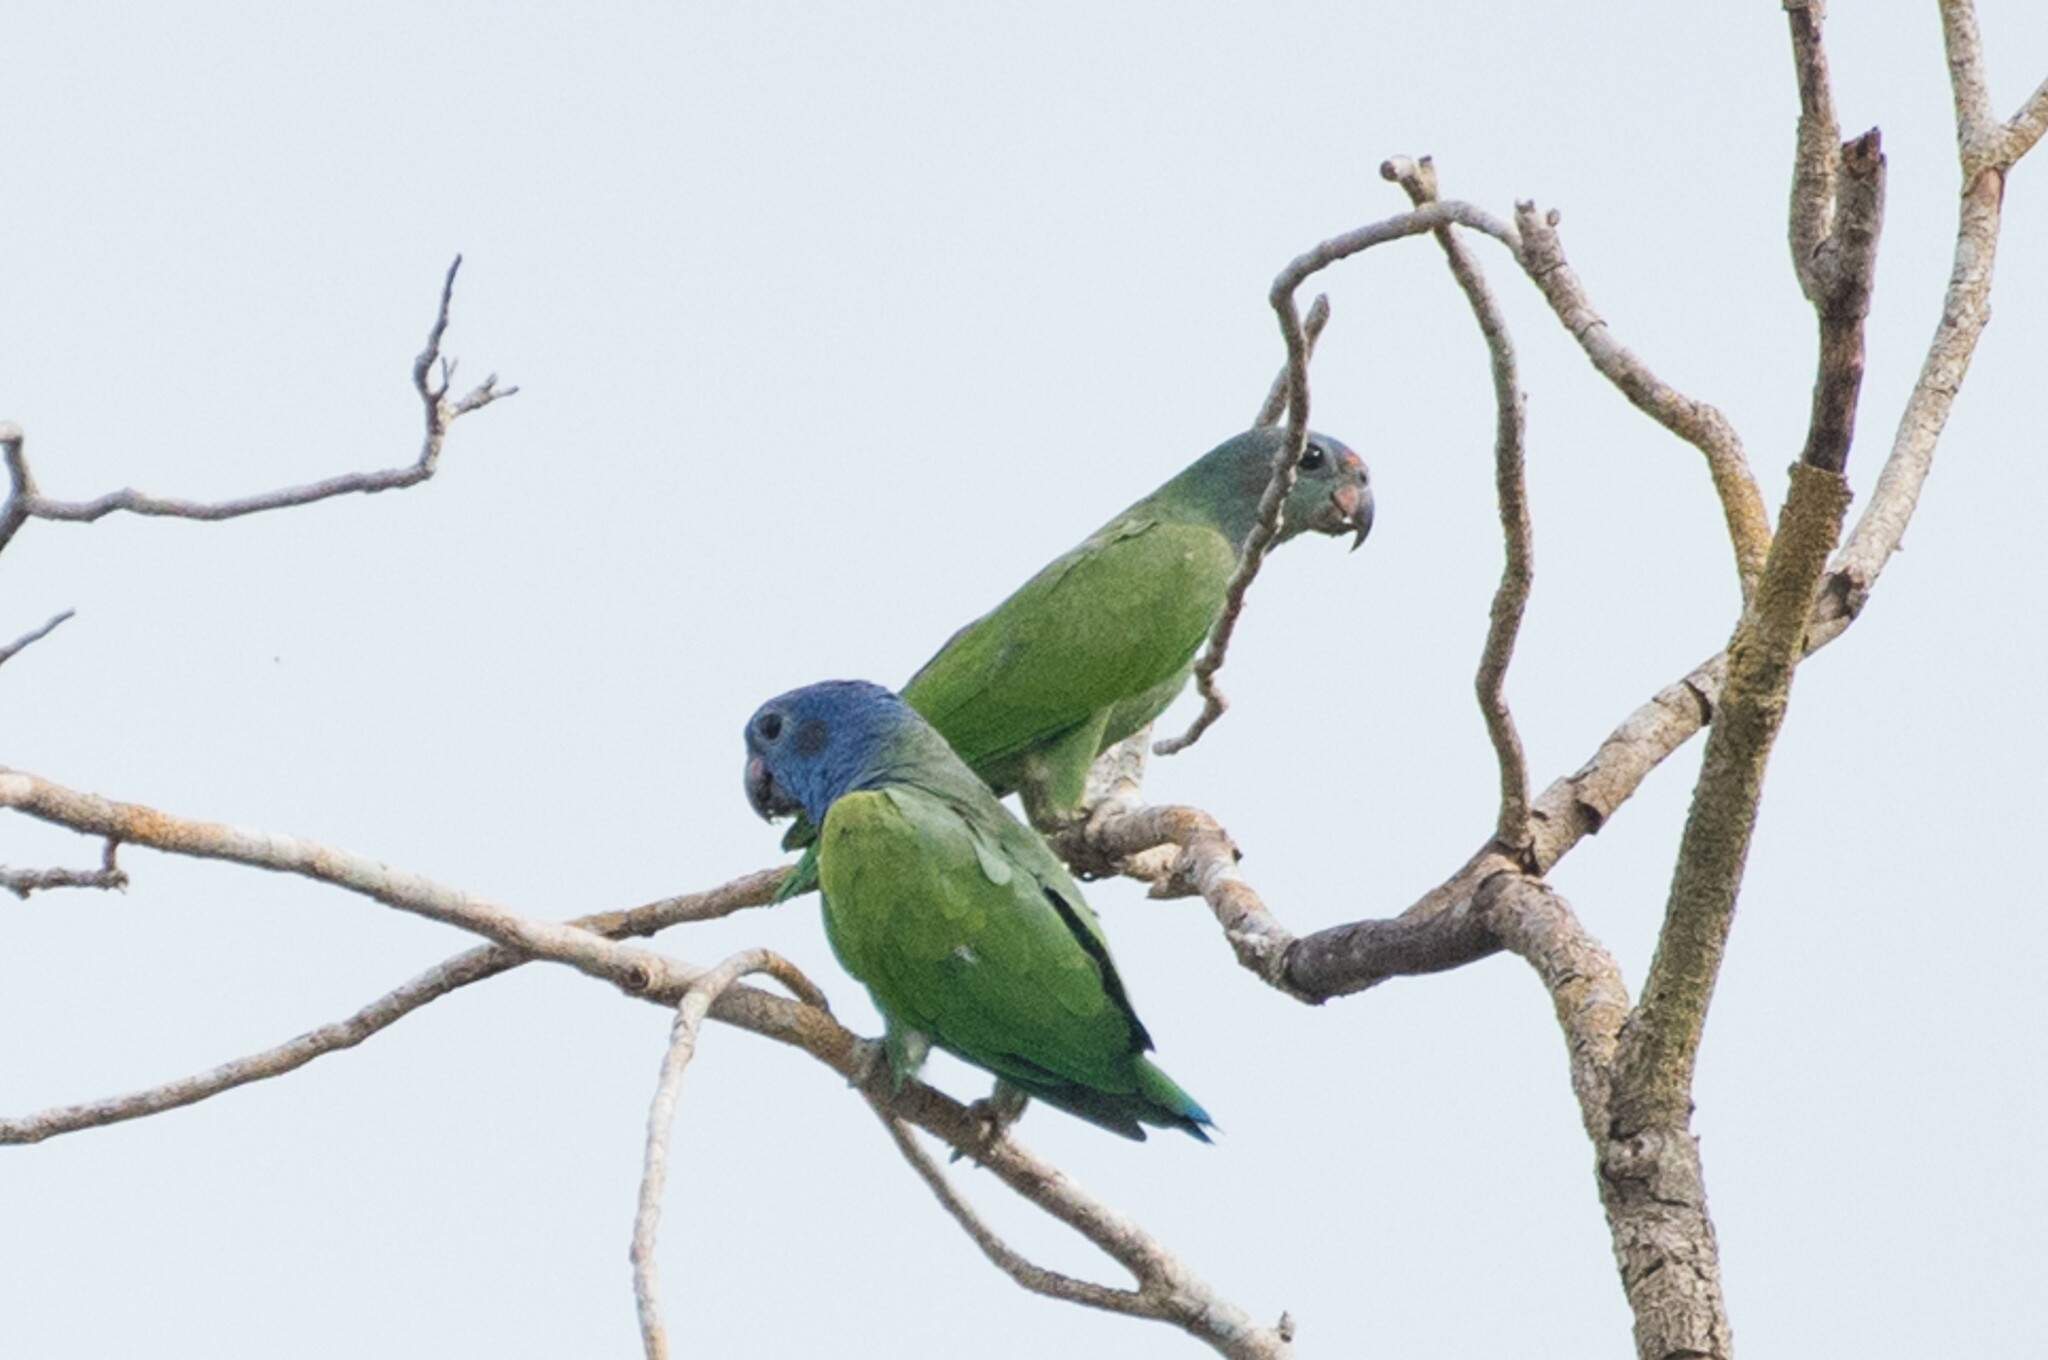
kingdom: Animalia
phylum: Chordata
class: Aves
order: Psittaciformes
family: Psittacidae
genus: Pionus
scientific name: Pionus menstruus
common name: Blue-headed parrot
